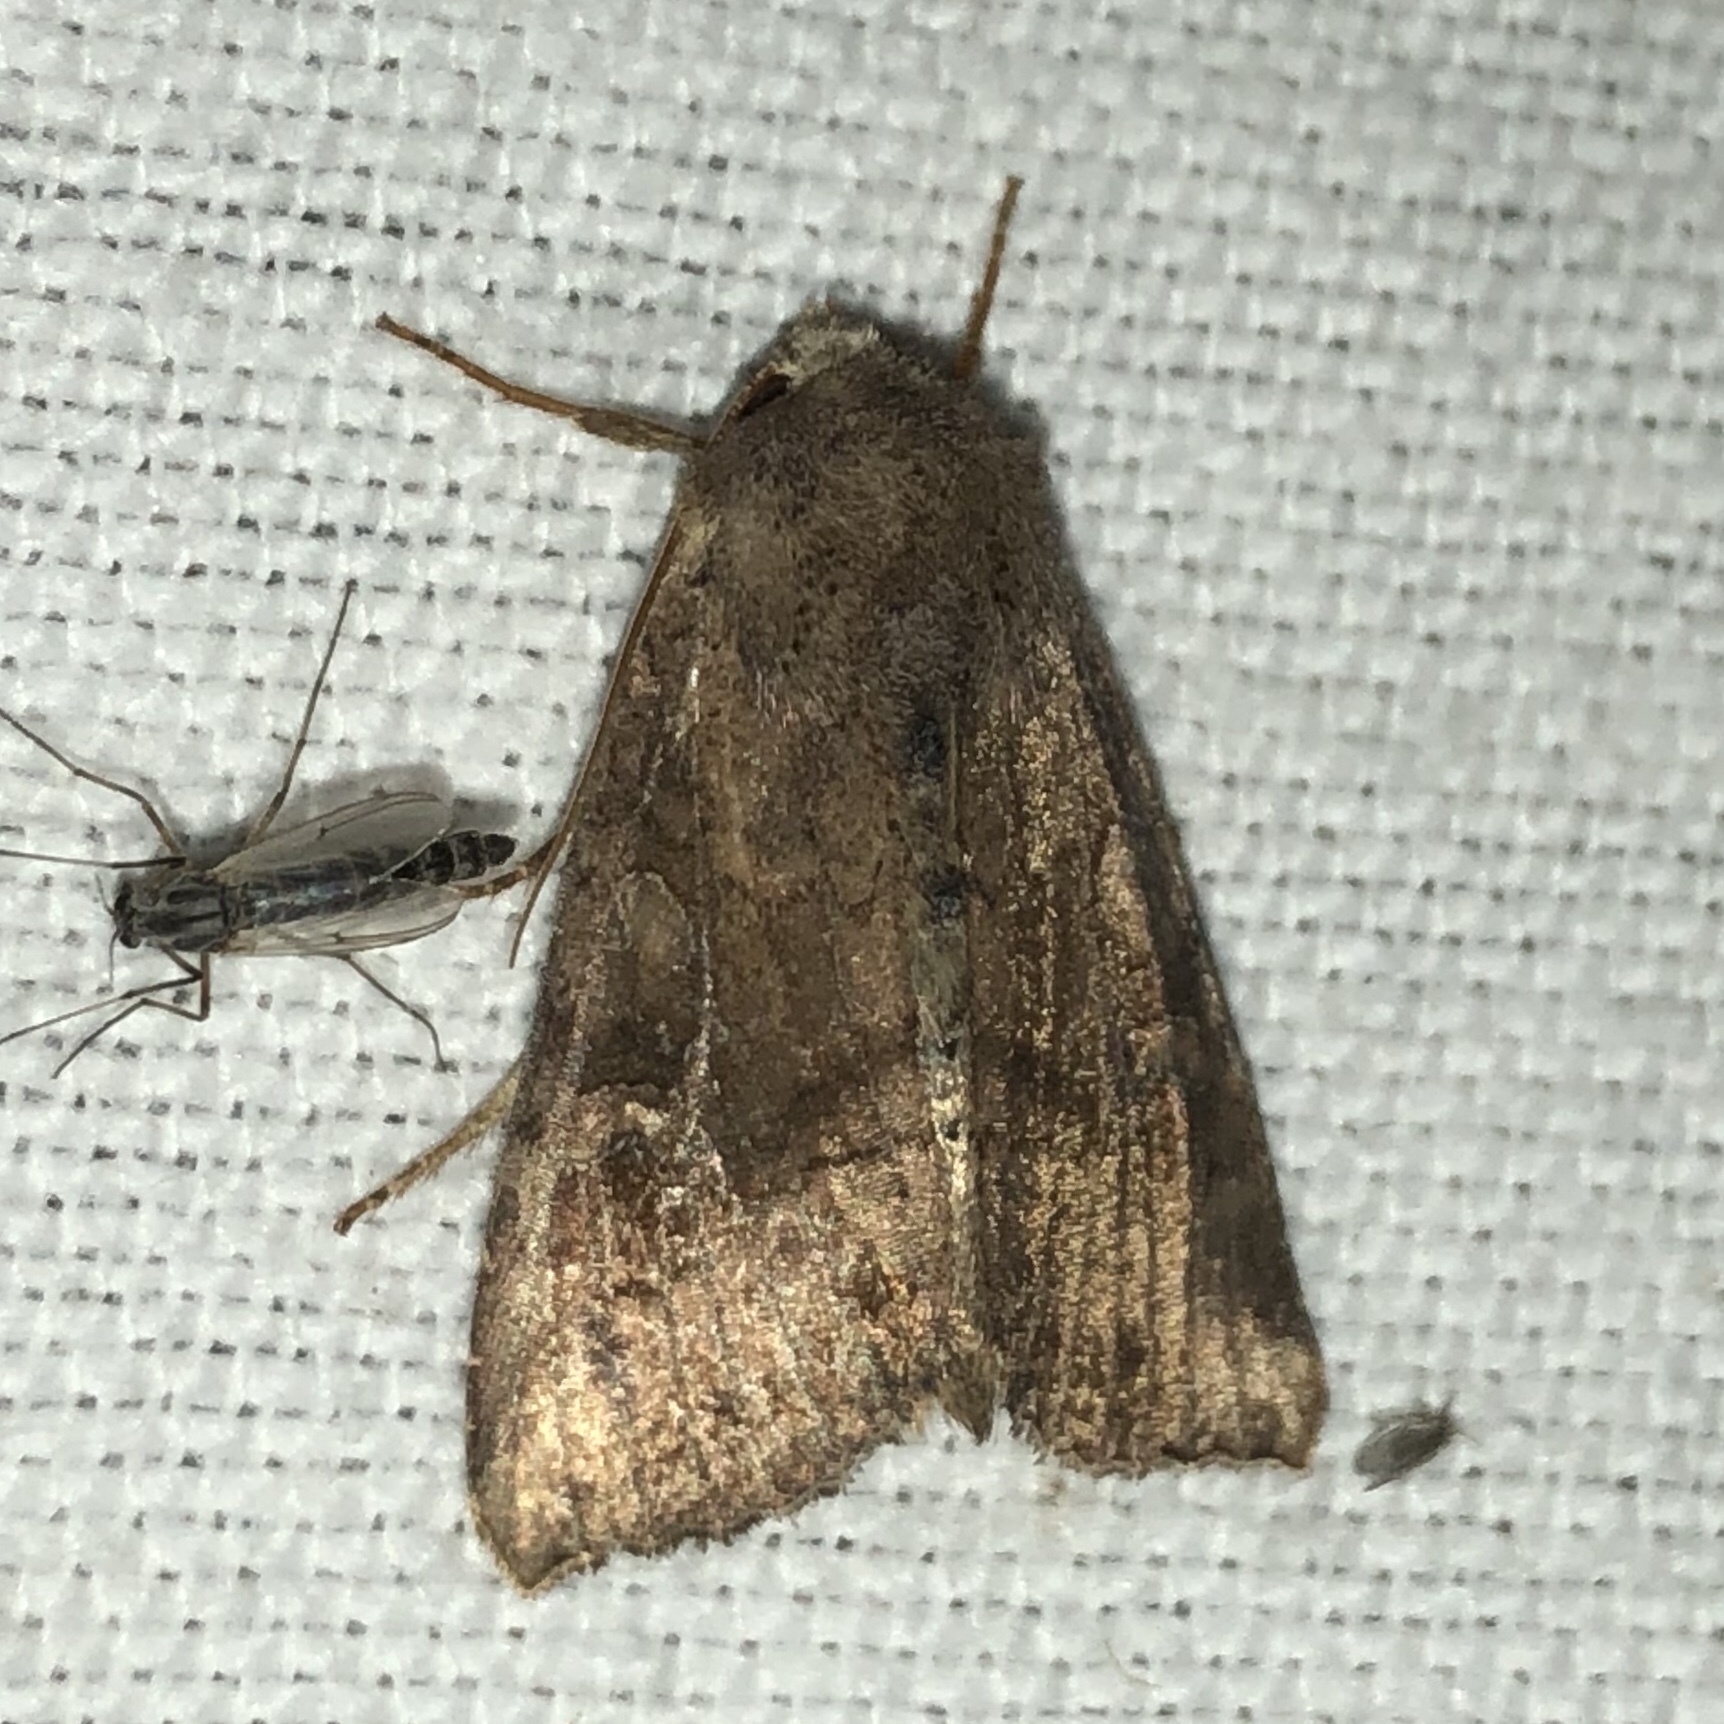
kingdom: Animalia
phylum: Arthropoda
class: Insecta
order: Lepidoptera
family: Noctuidae
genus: Loscopia
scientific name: Loscopia velata
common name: Veiled ear moth
